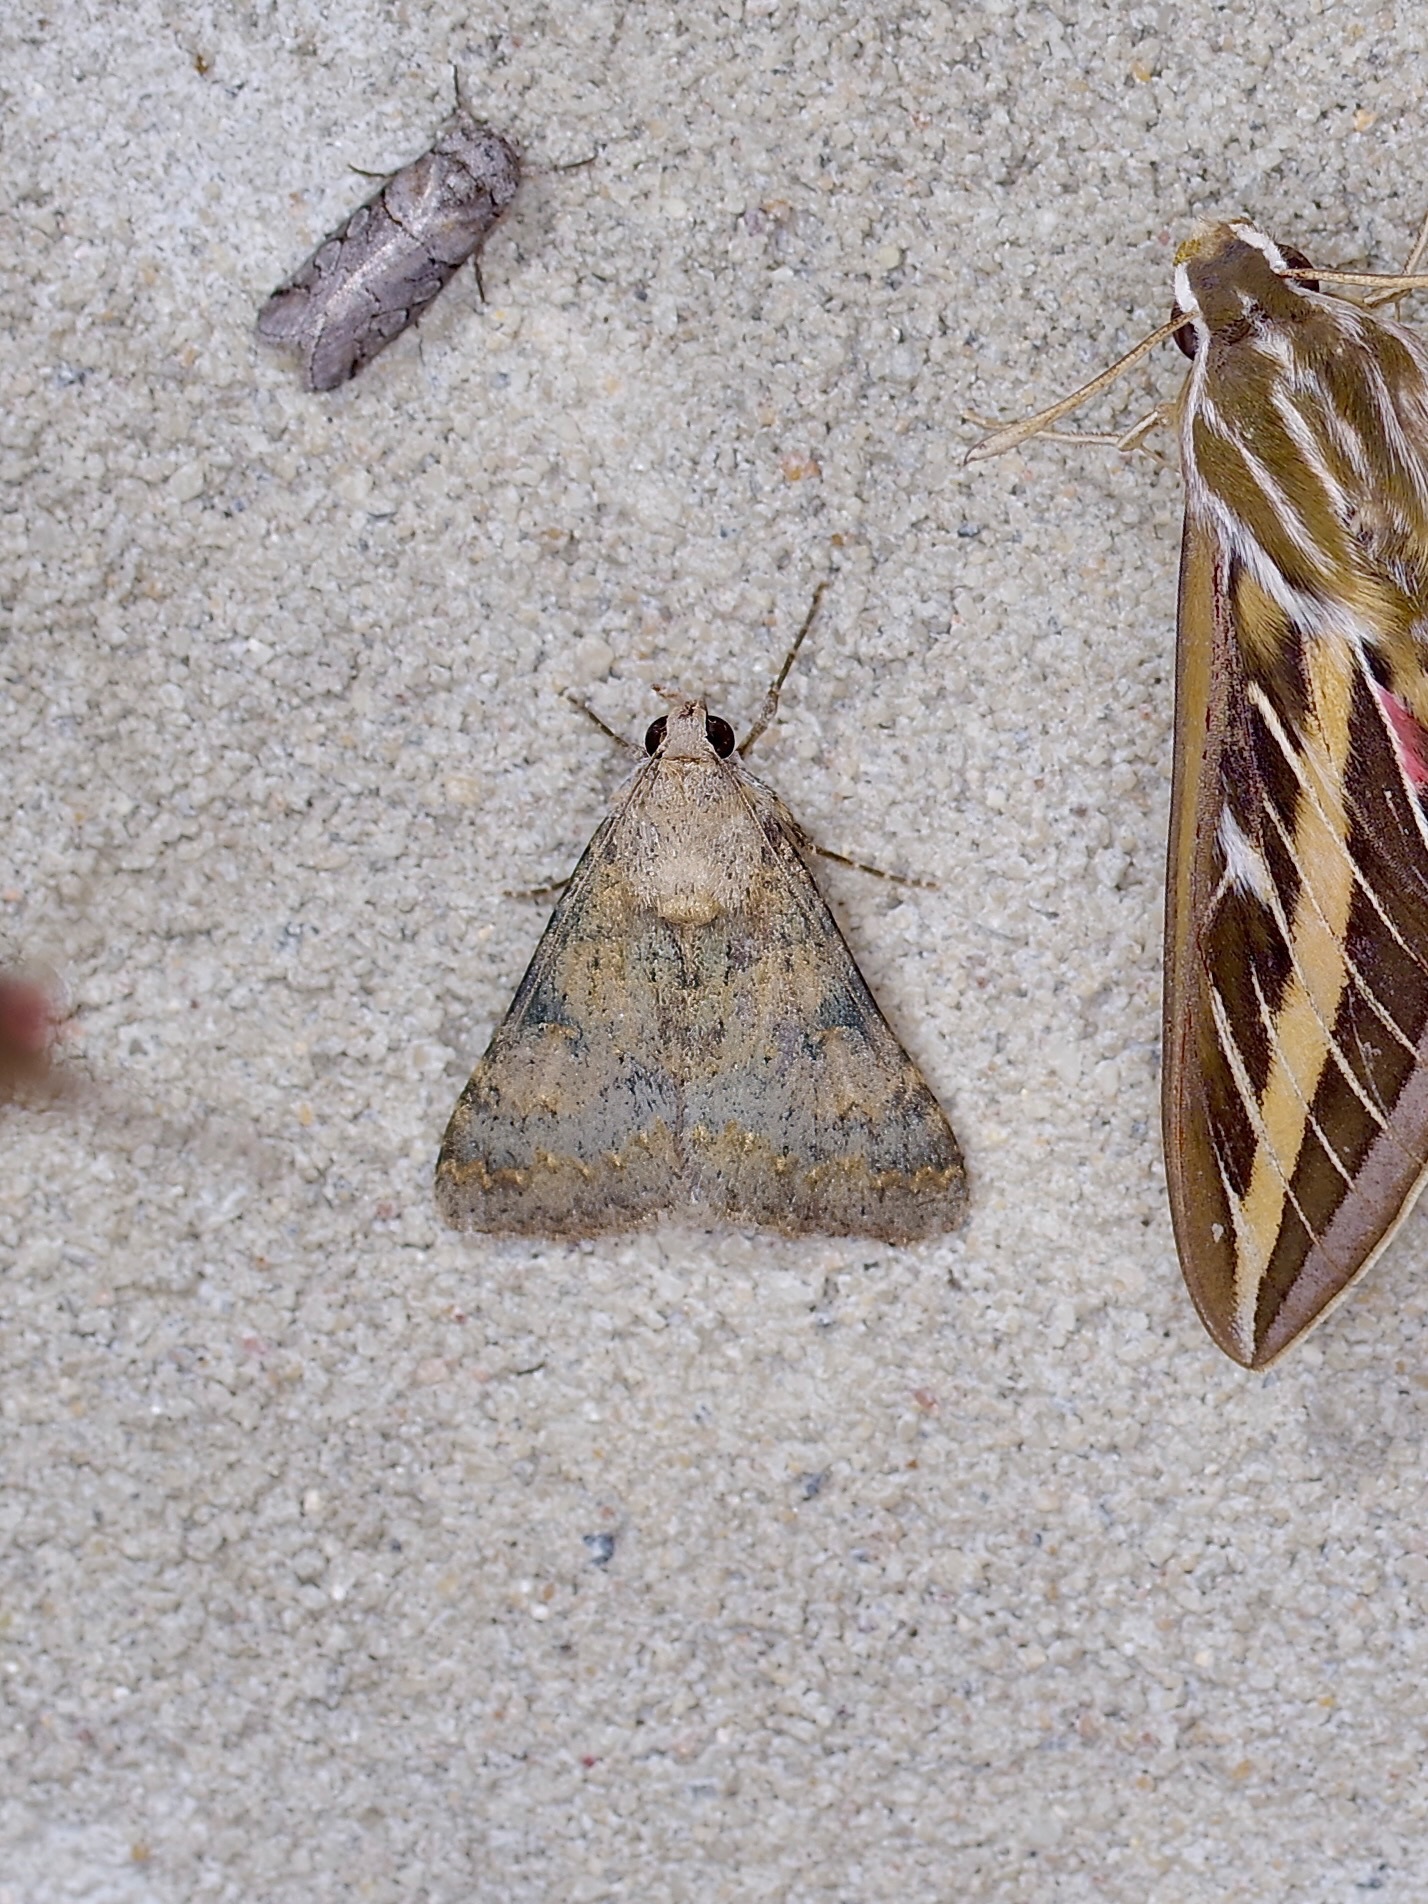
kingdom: Animalia
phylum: Arthropoda
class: Insecta
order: Lepidoptera
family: Erebidae
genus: Melipotis
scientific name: Melipotis jucunda
